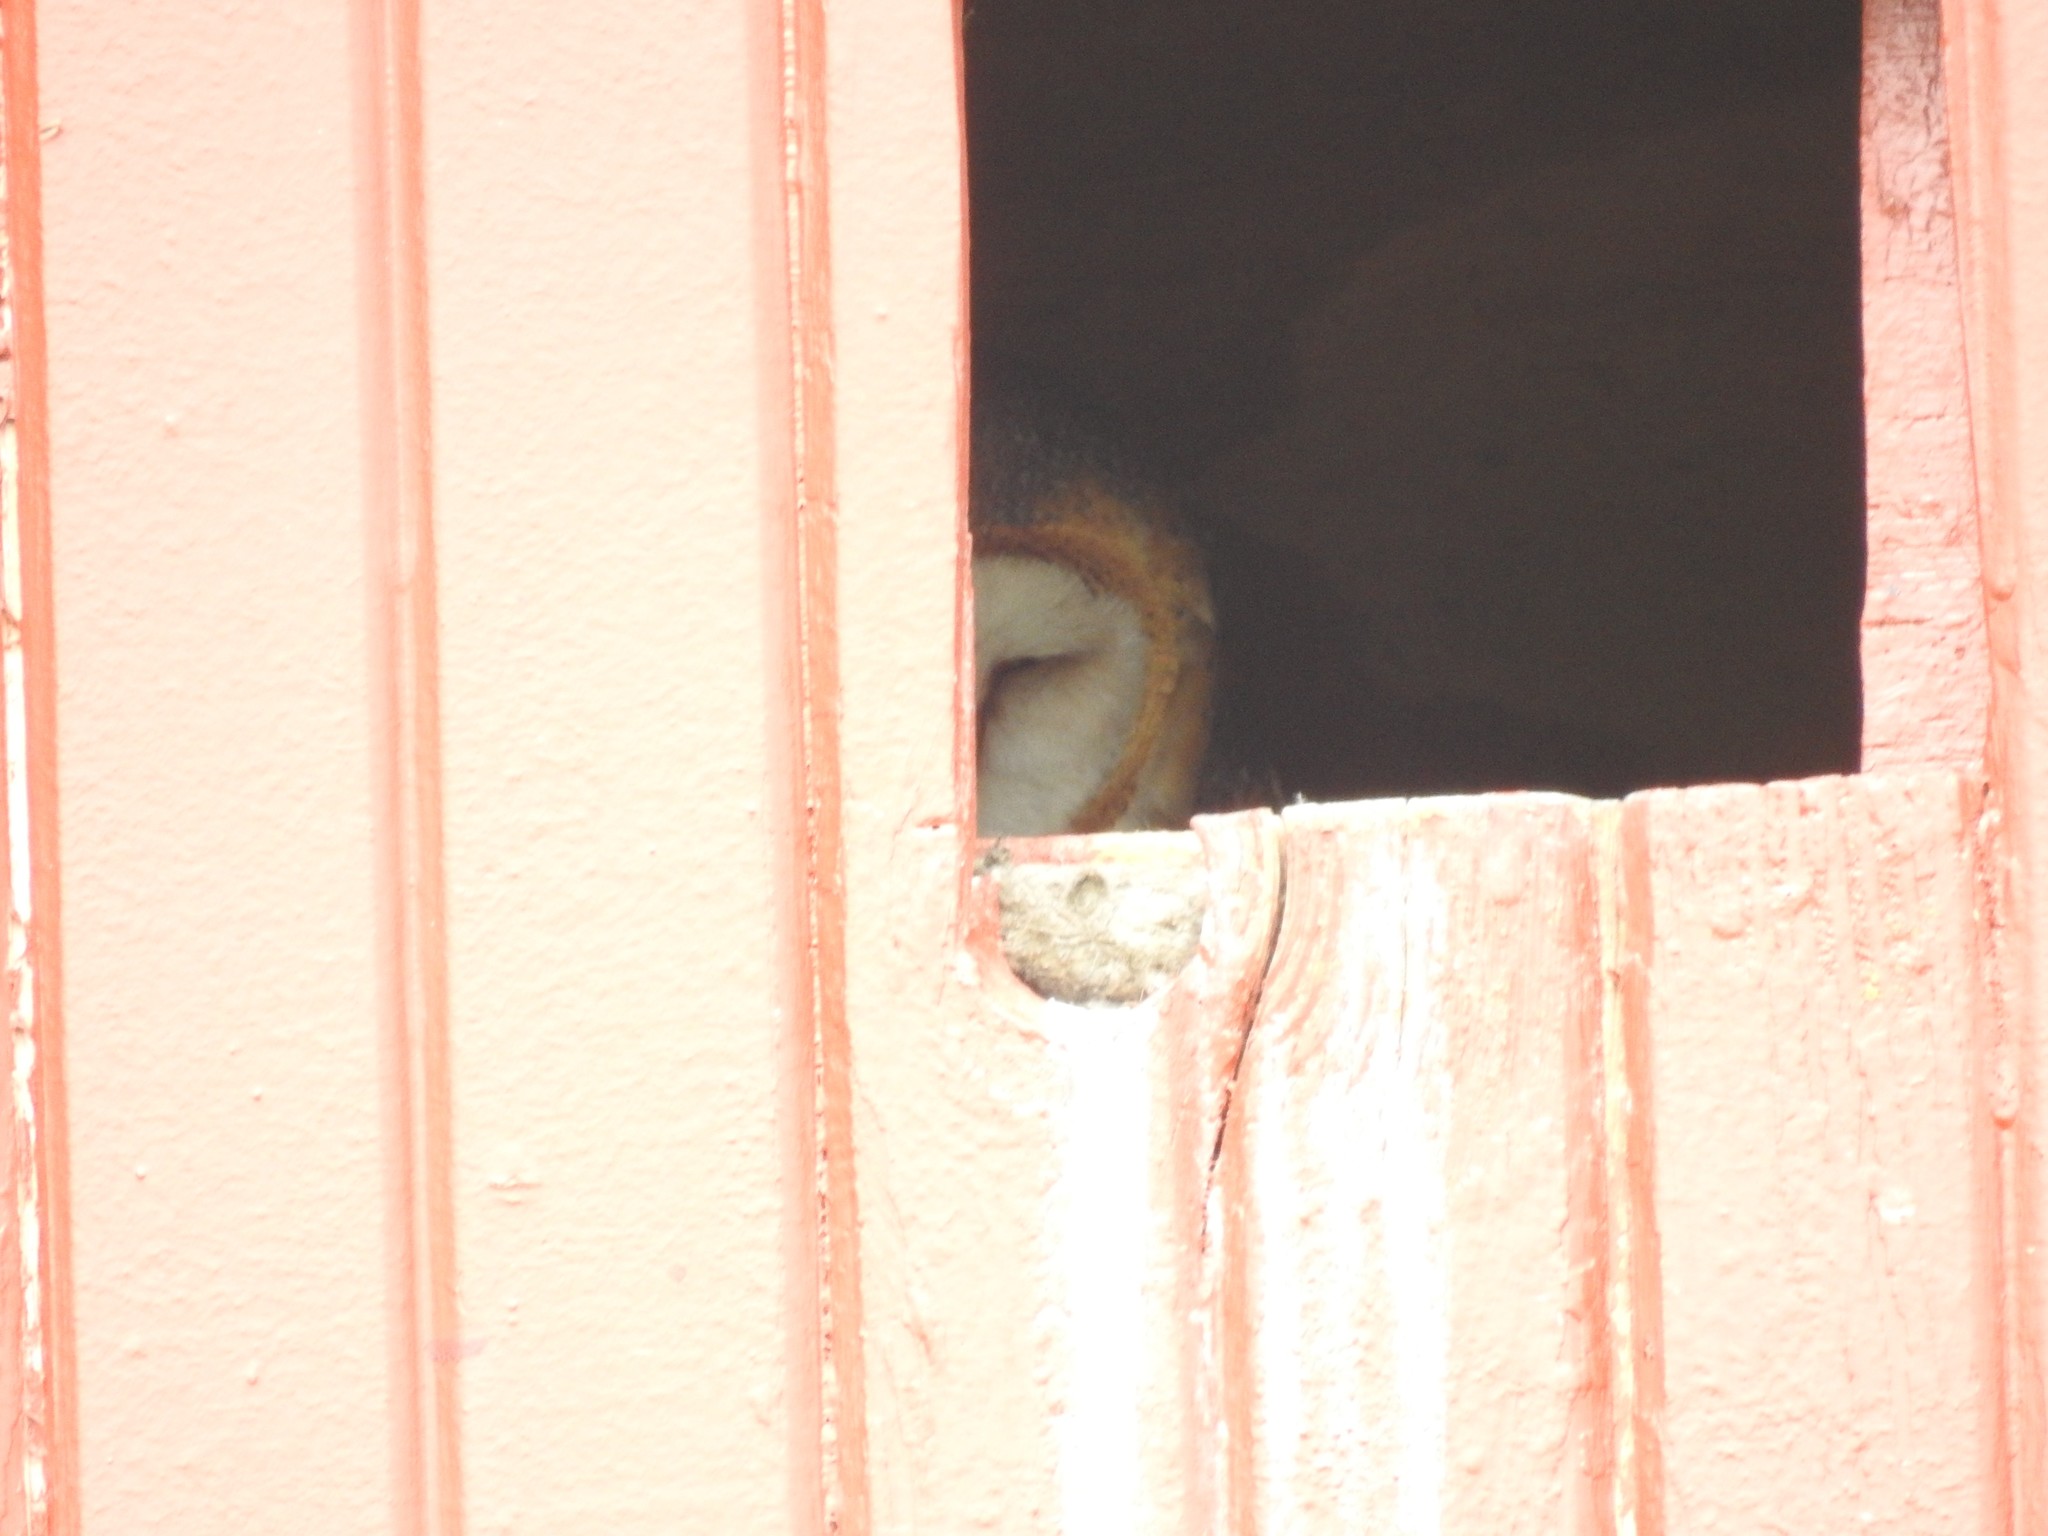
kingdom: Animalia
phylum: Chordata
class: Aves
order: Strigiformes
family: Tytonidae
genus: Tyto
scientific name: Tyto alba
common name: Barn owl
